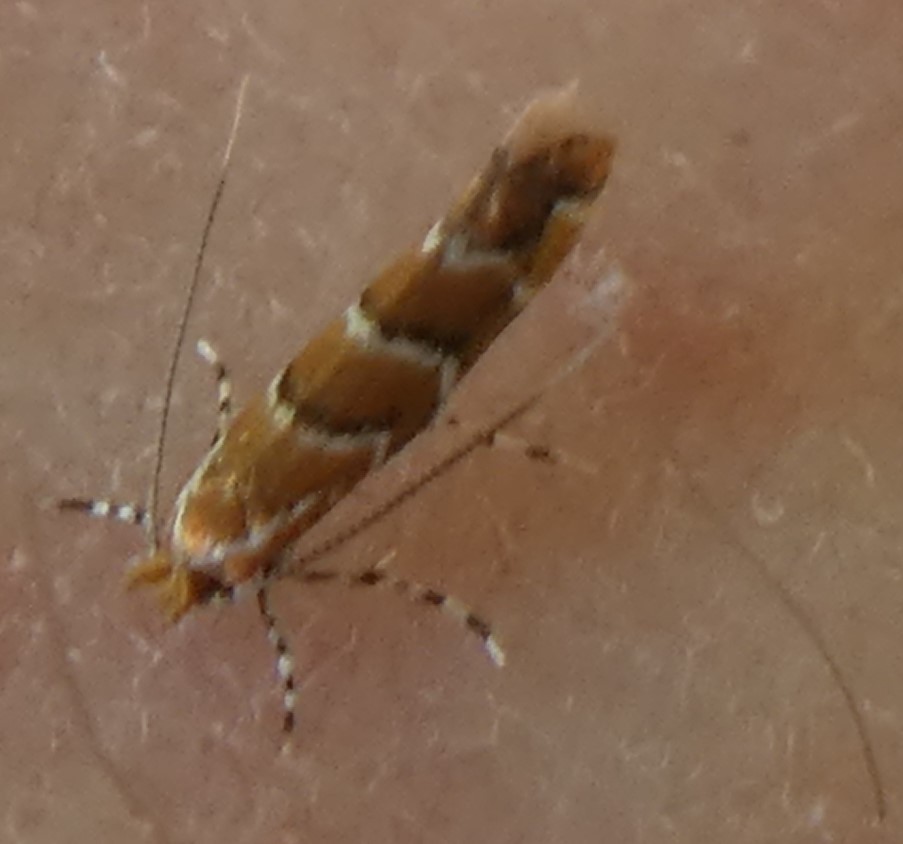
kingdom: Animalia
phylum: Arthropoda
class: Insecta
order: Lepidoptera
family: Gracillariidae
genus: Cameraria
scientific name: Cameraria ohridella
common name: Horse-chestnut leaf-miner
